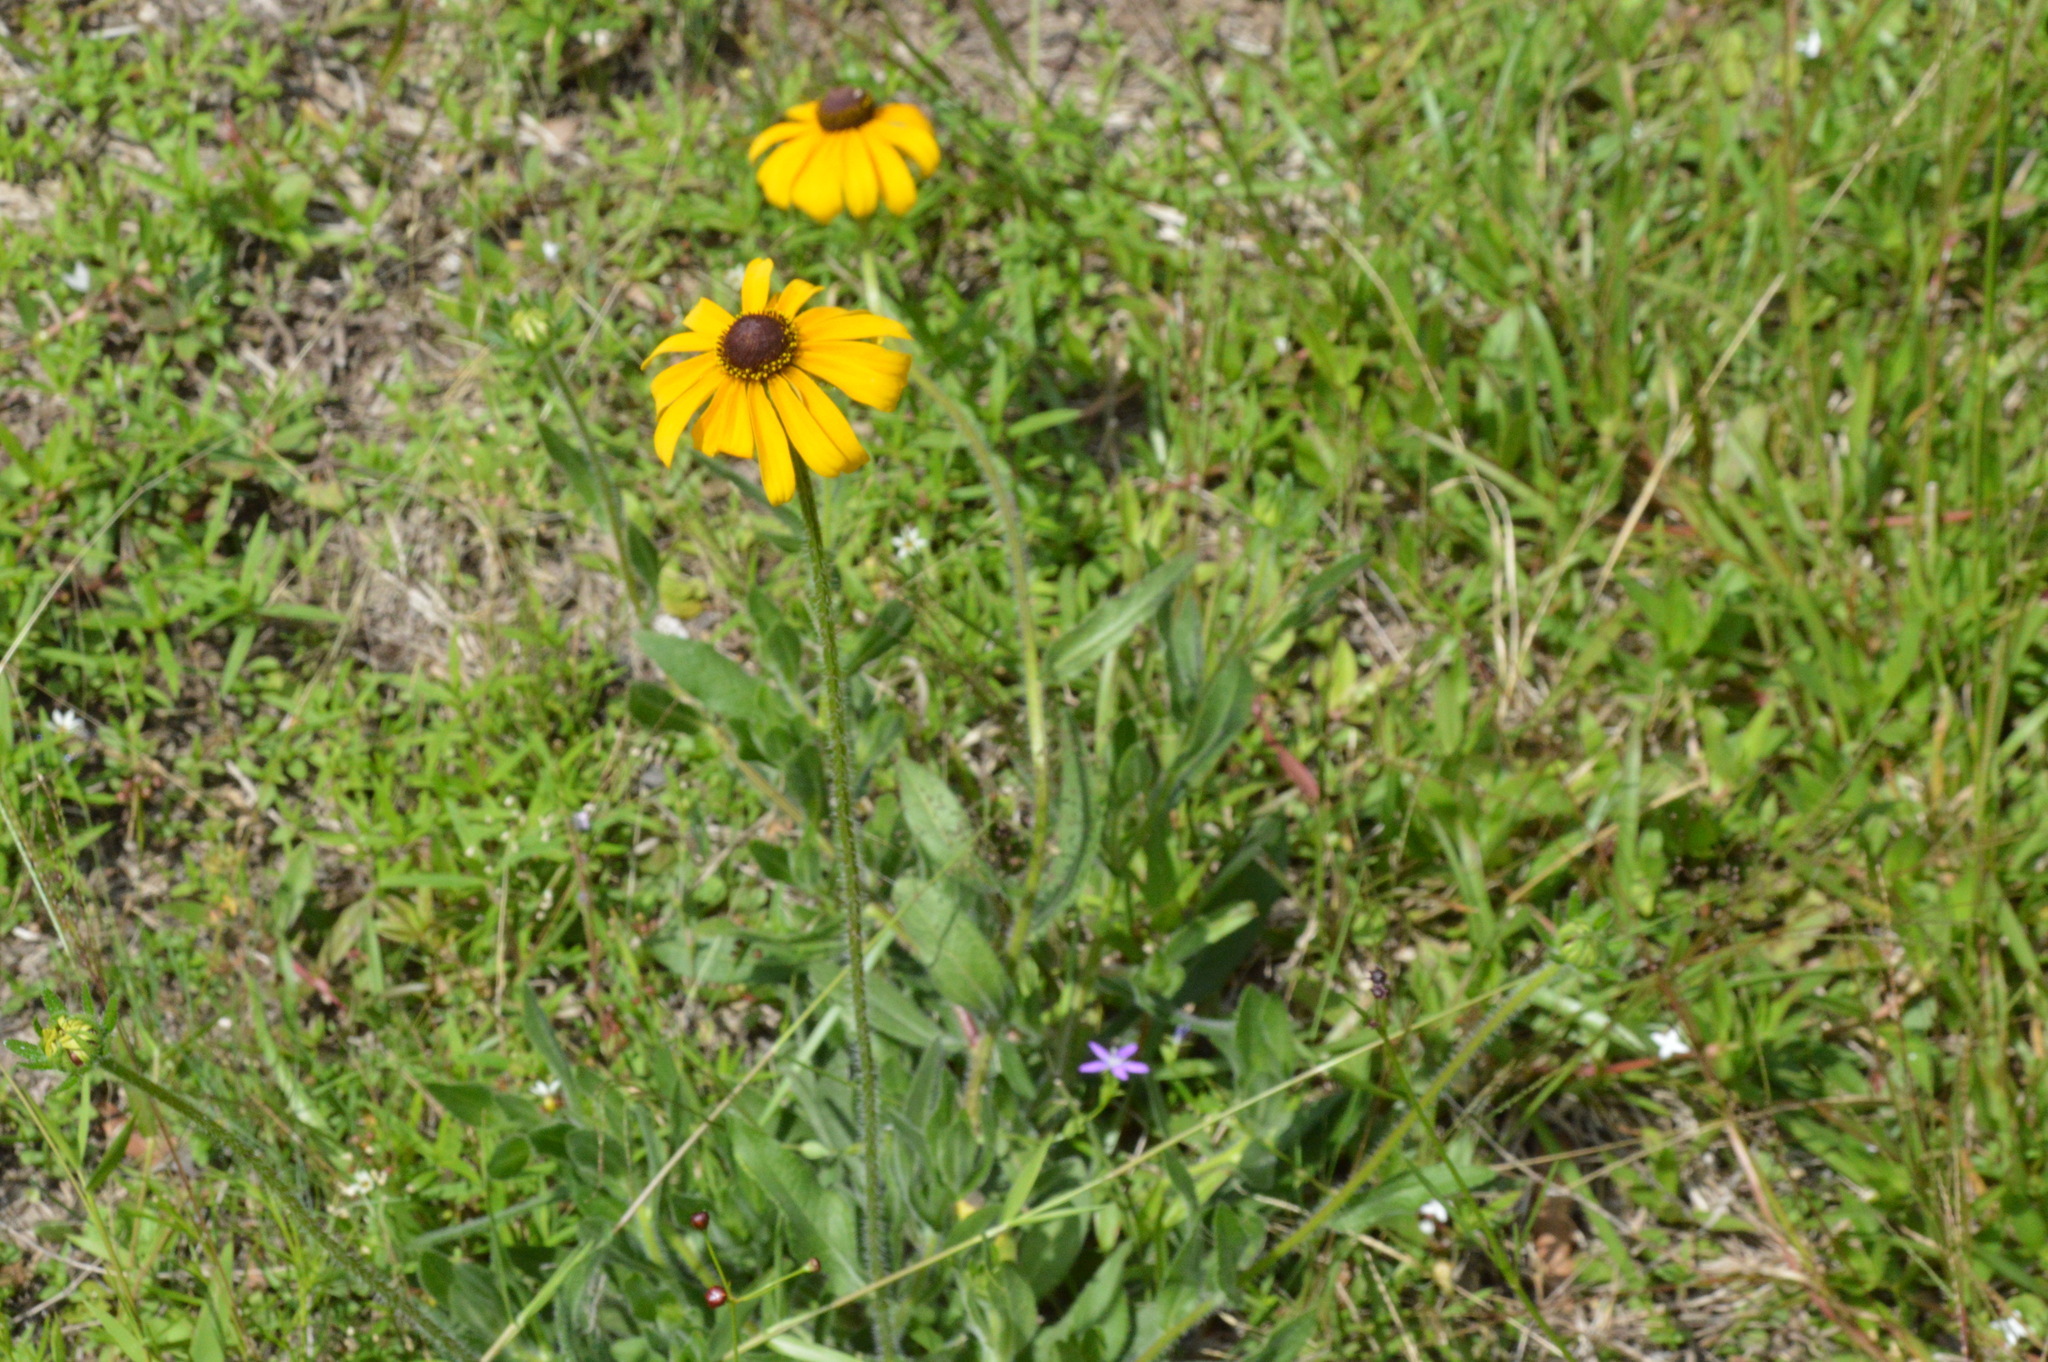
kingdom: Plantae
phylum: Tracheophyta
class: Magnoliopsida
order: Asterales
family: Asteraceae
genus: Rudbeckia
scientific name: Rudbeckia hirta
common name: Black-eyed-susan
